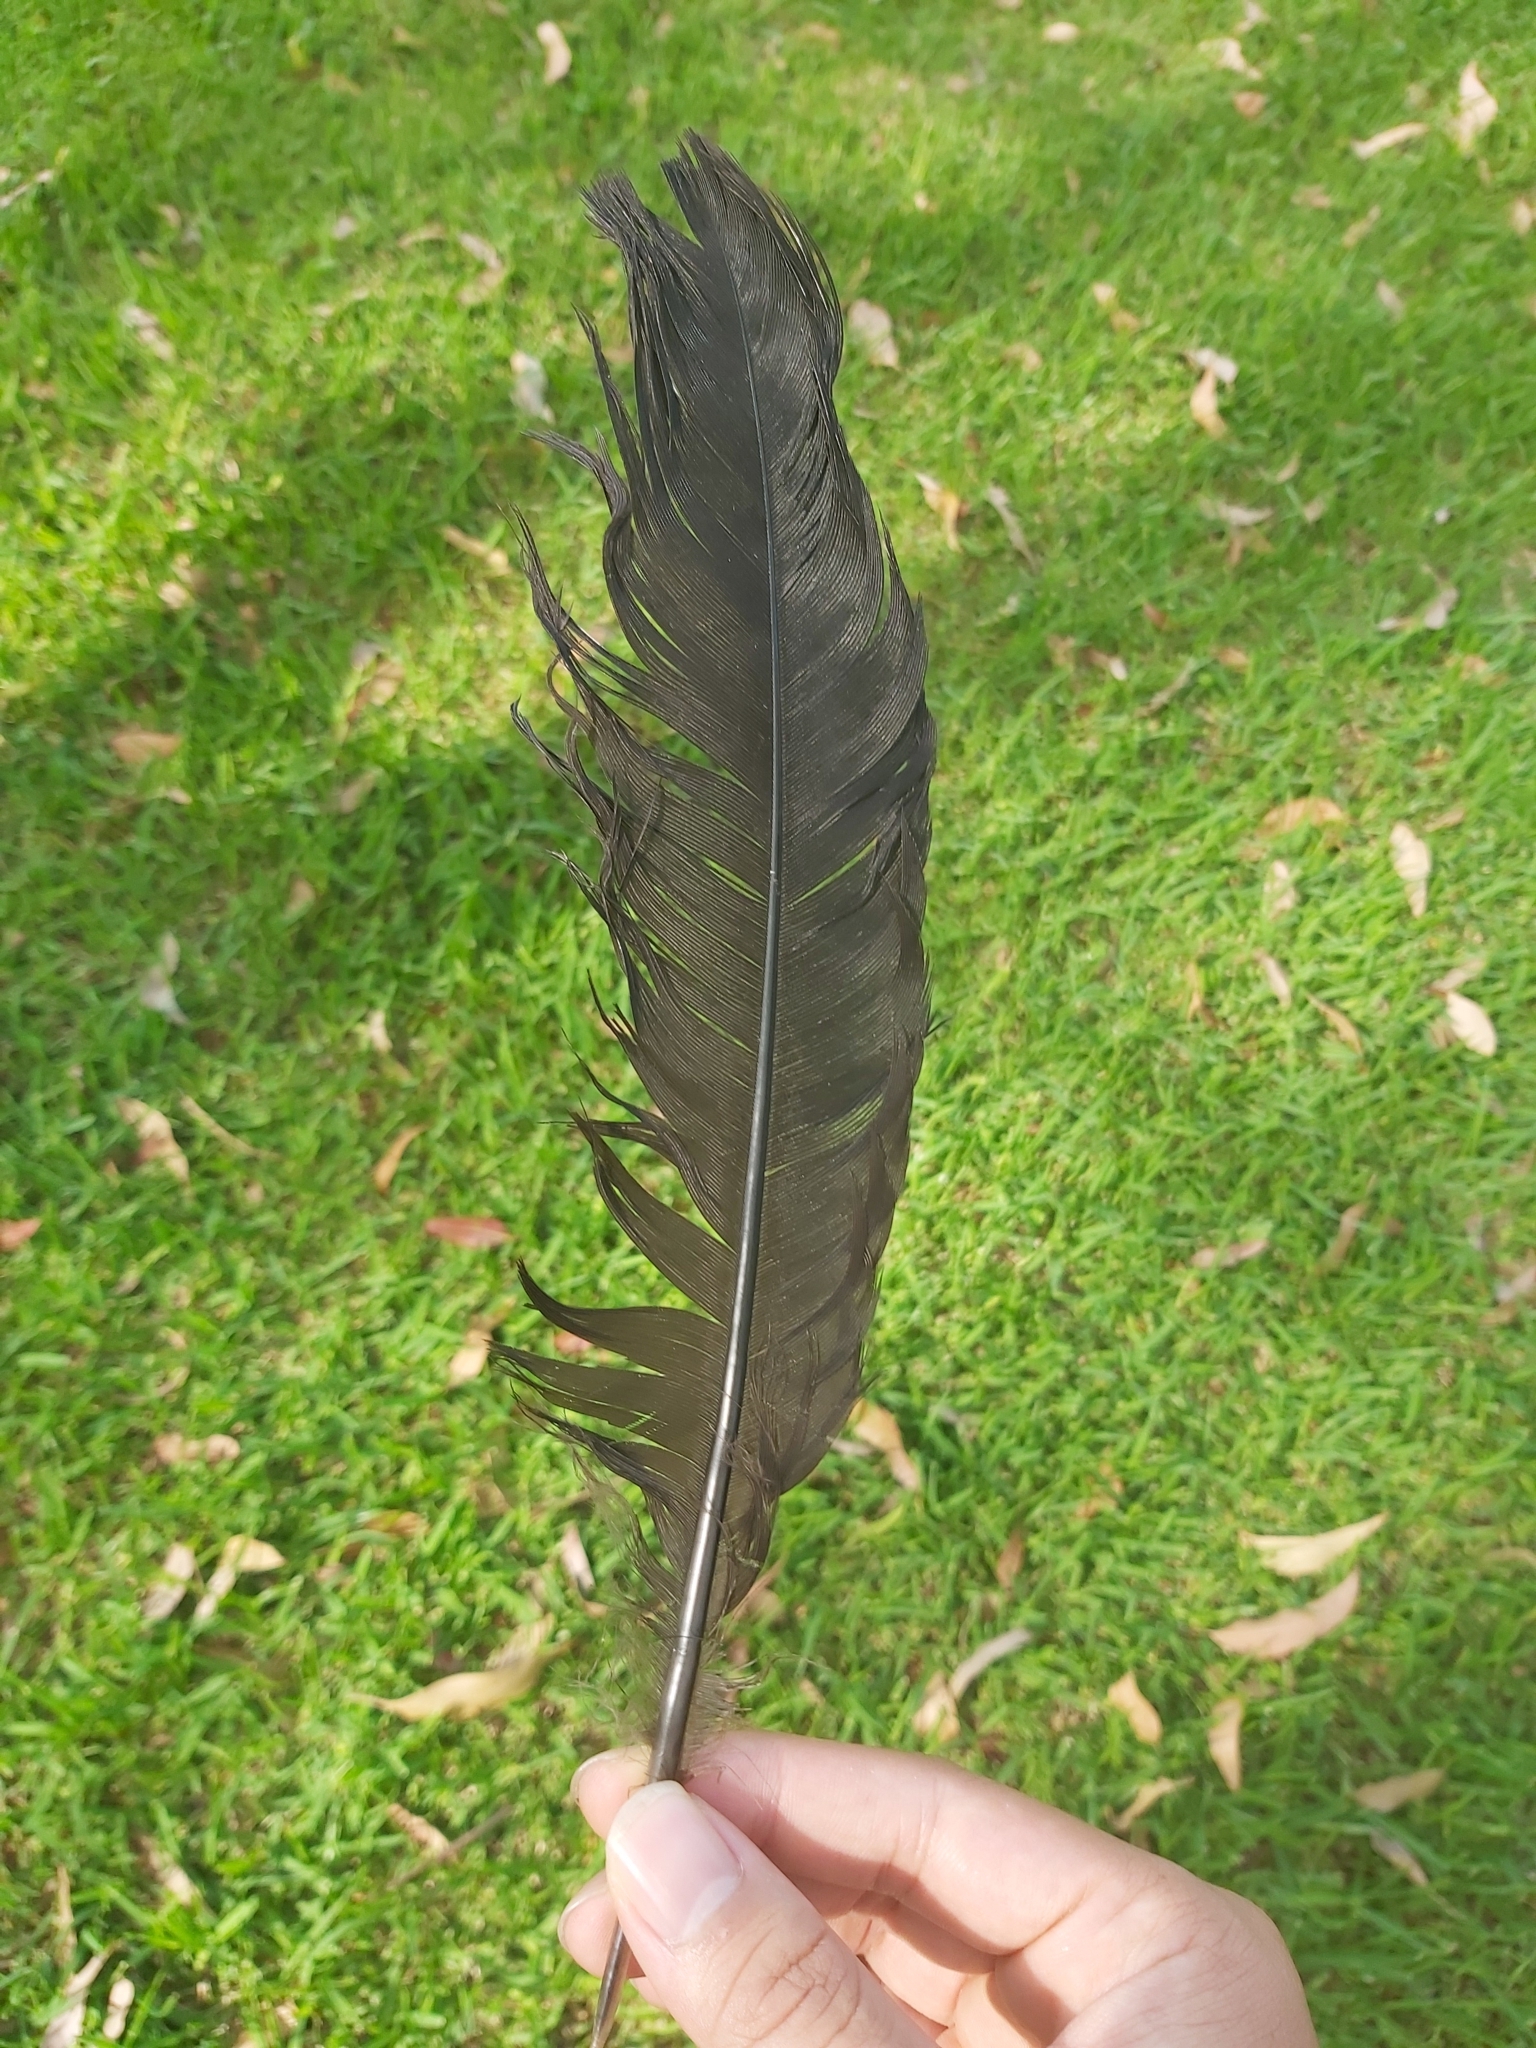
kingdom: Animalia
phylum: Chordata
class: Aves
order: Galliformes
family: Megapodiidae
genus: Alectura
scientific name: Alectura lathami
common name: Australian brushturkey
